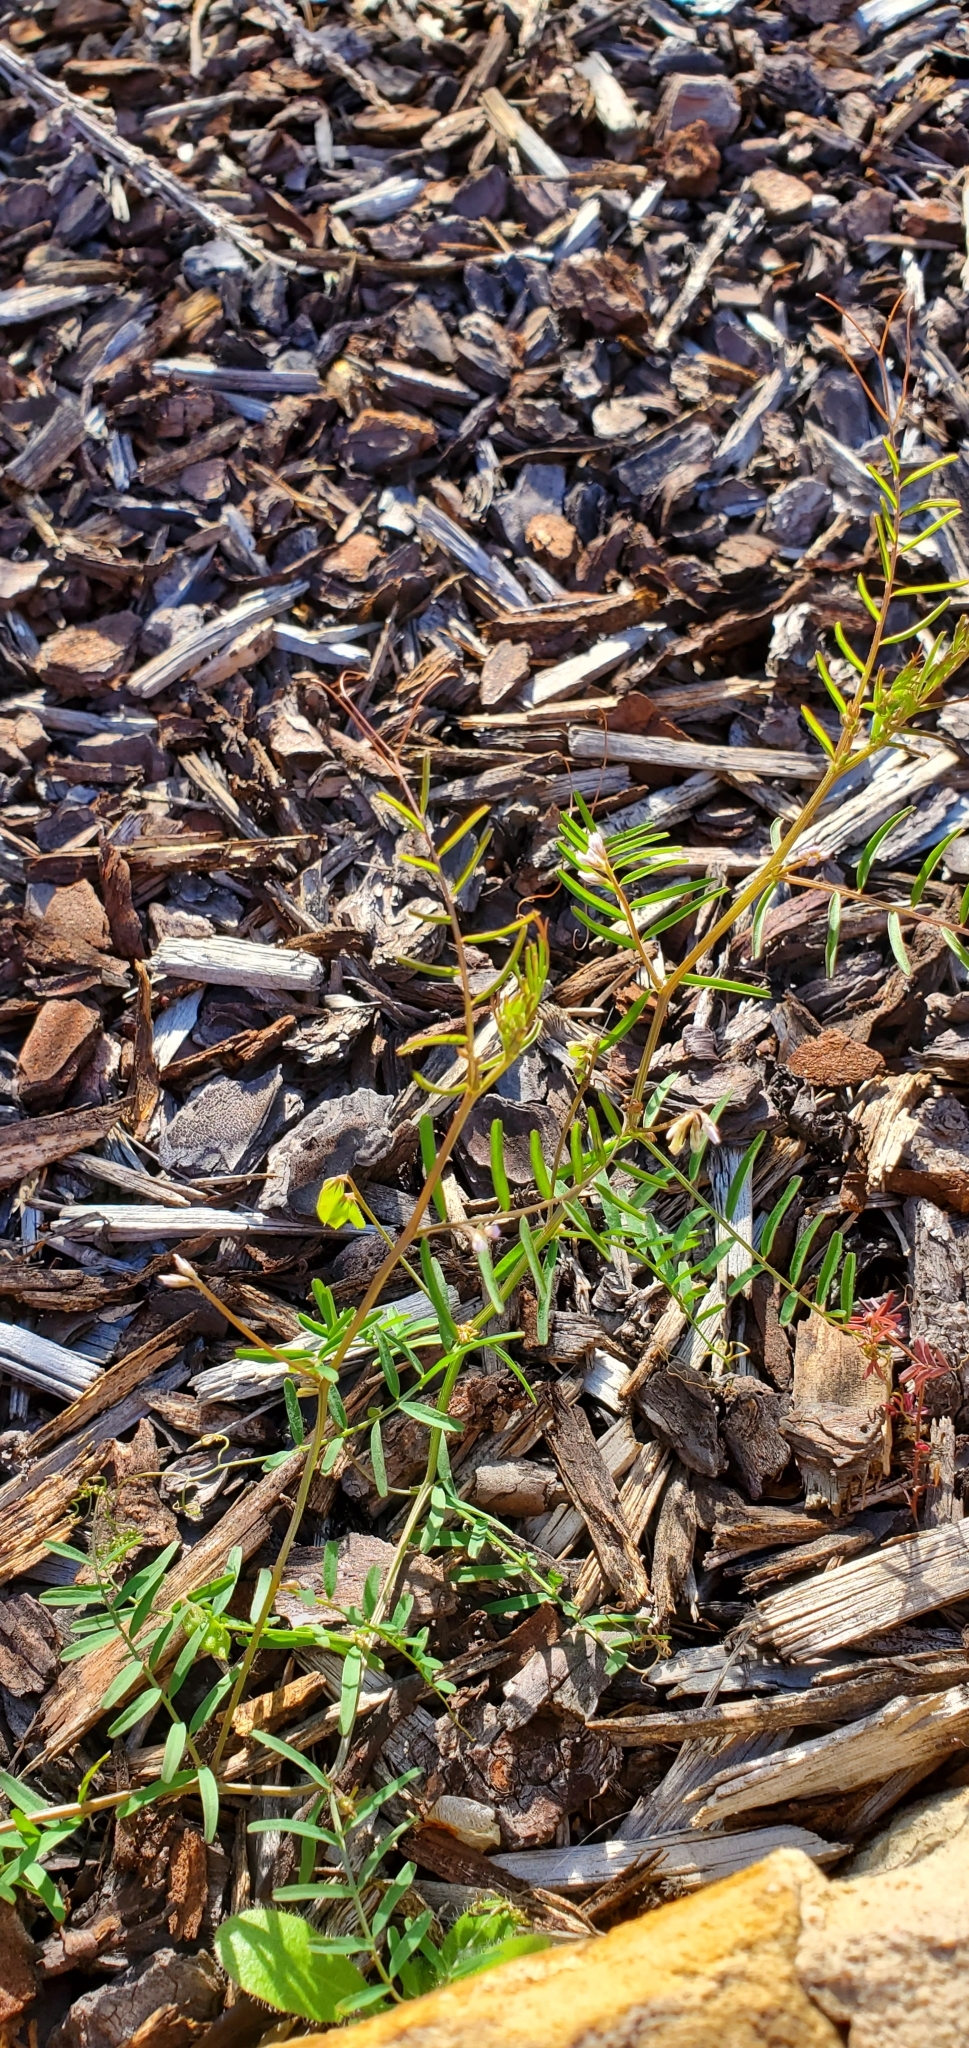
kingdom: Plantae
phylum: Tracheophyta
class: Magnoliopsida
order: Fabales
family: Fabaceae
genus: Vicia
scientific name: Vicia hirsuta
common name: Tiny vetch
